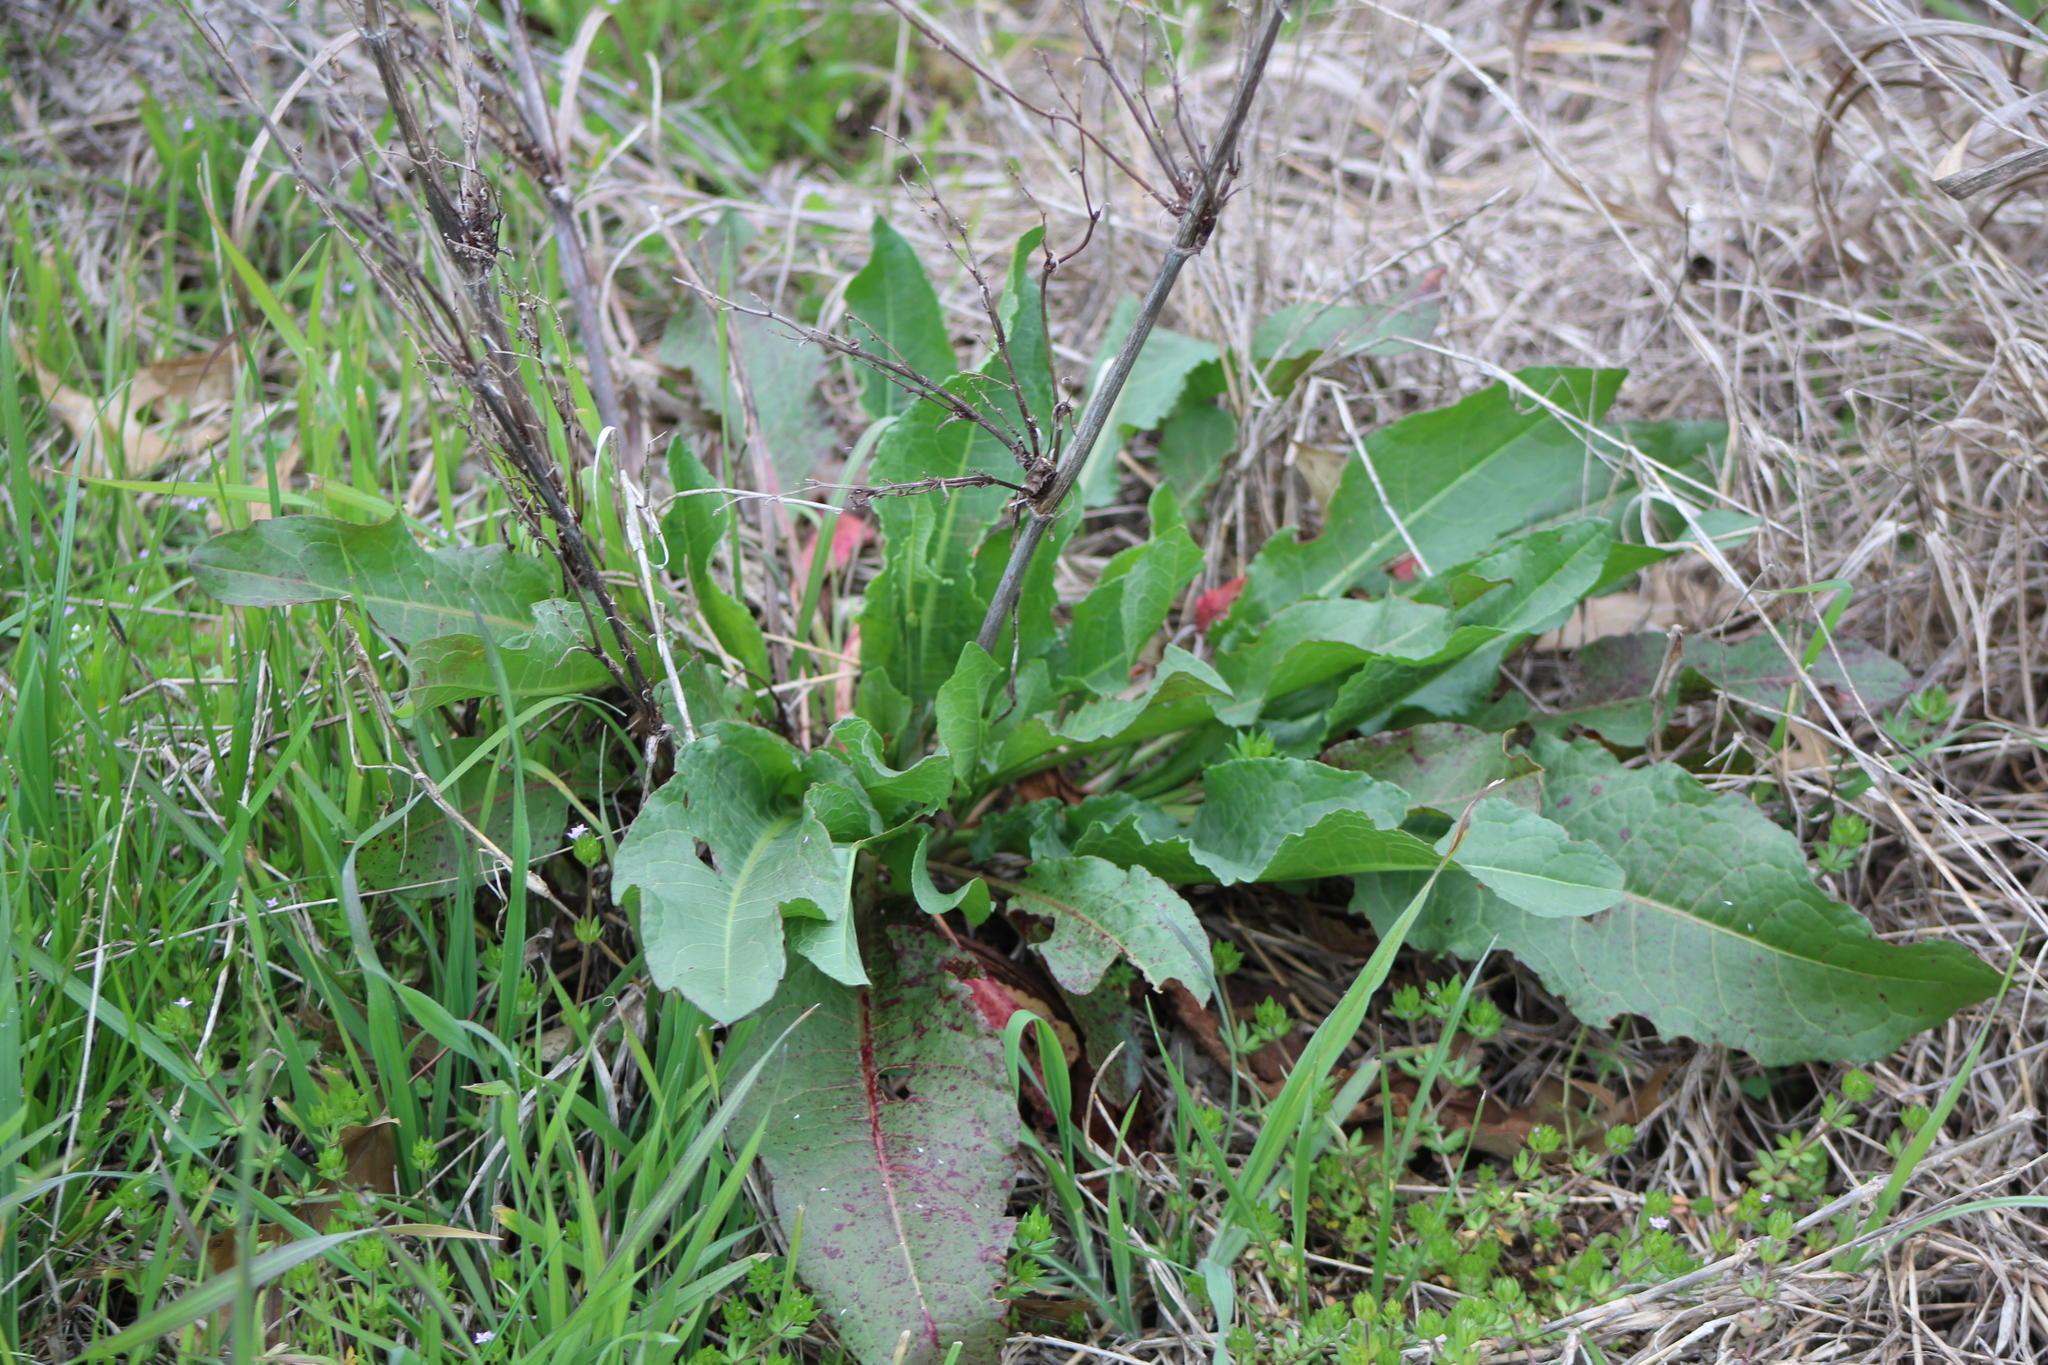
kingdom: Plantae
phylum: Tracheophyta
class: Magnoliopsida
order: Caryophyllales
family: Polygonaceae
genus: Rumex
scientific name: Rumex crispus
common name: Curled dock
